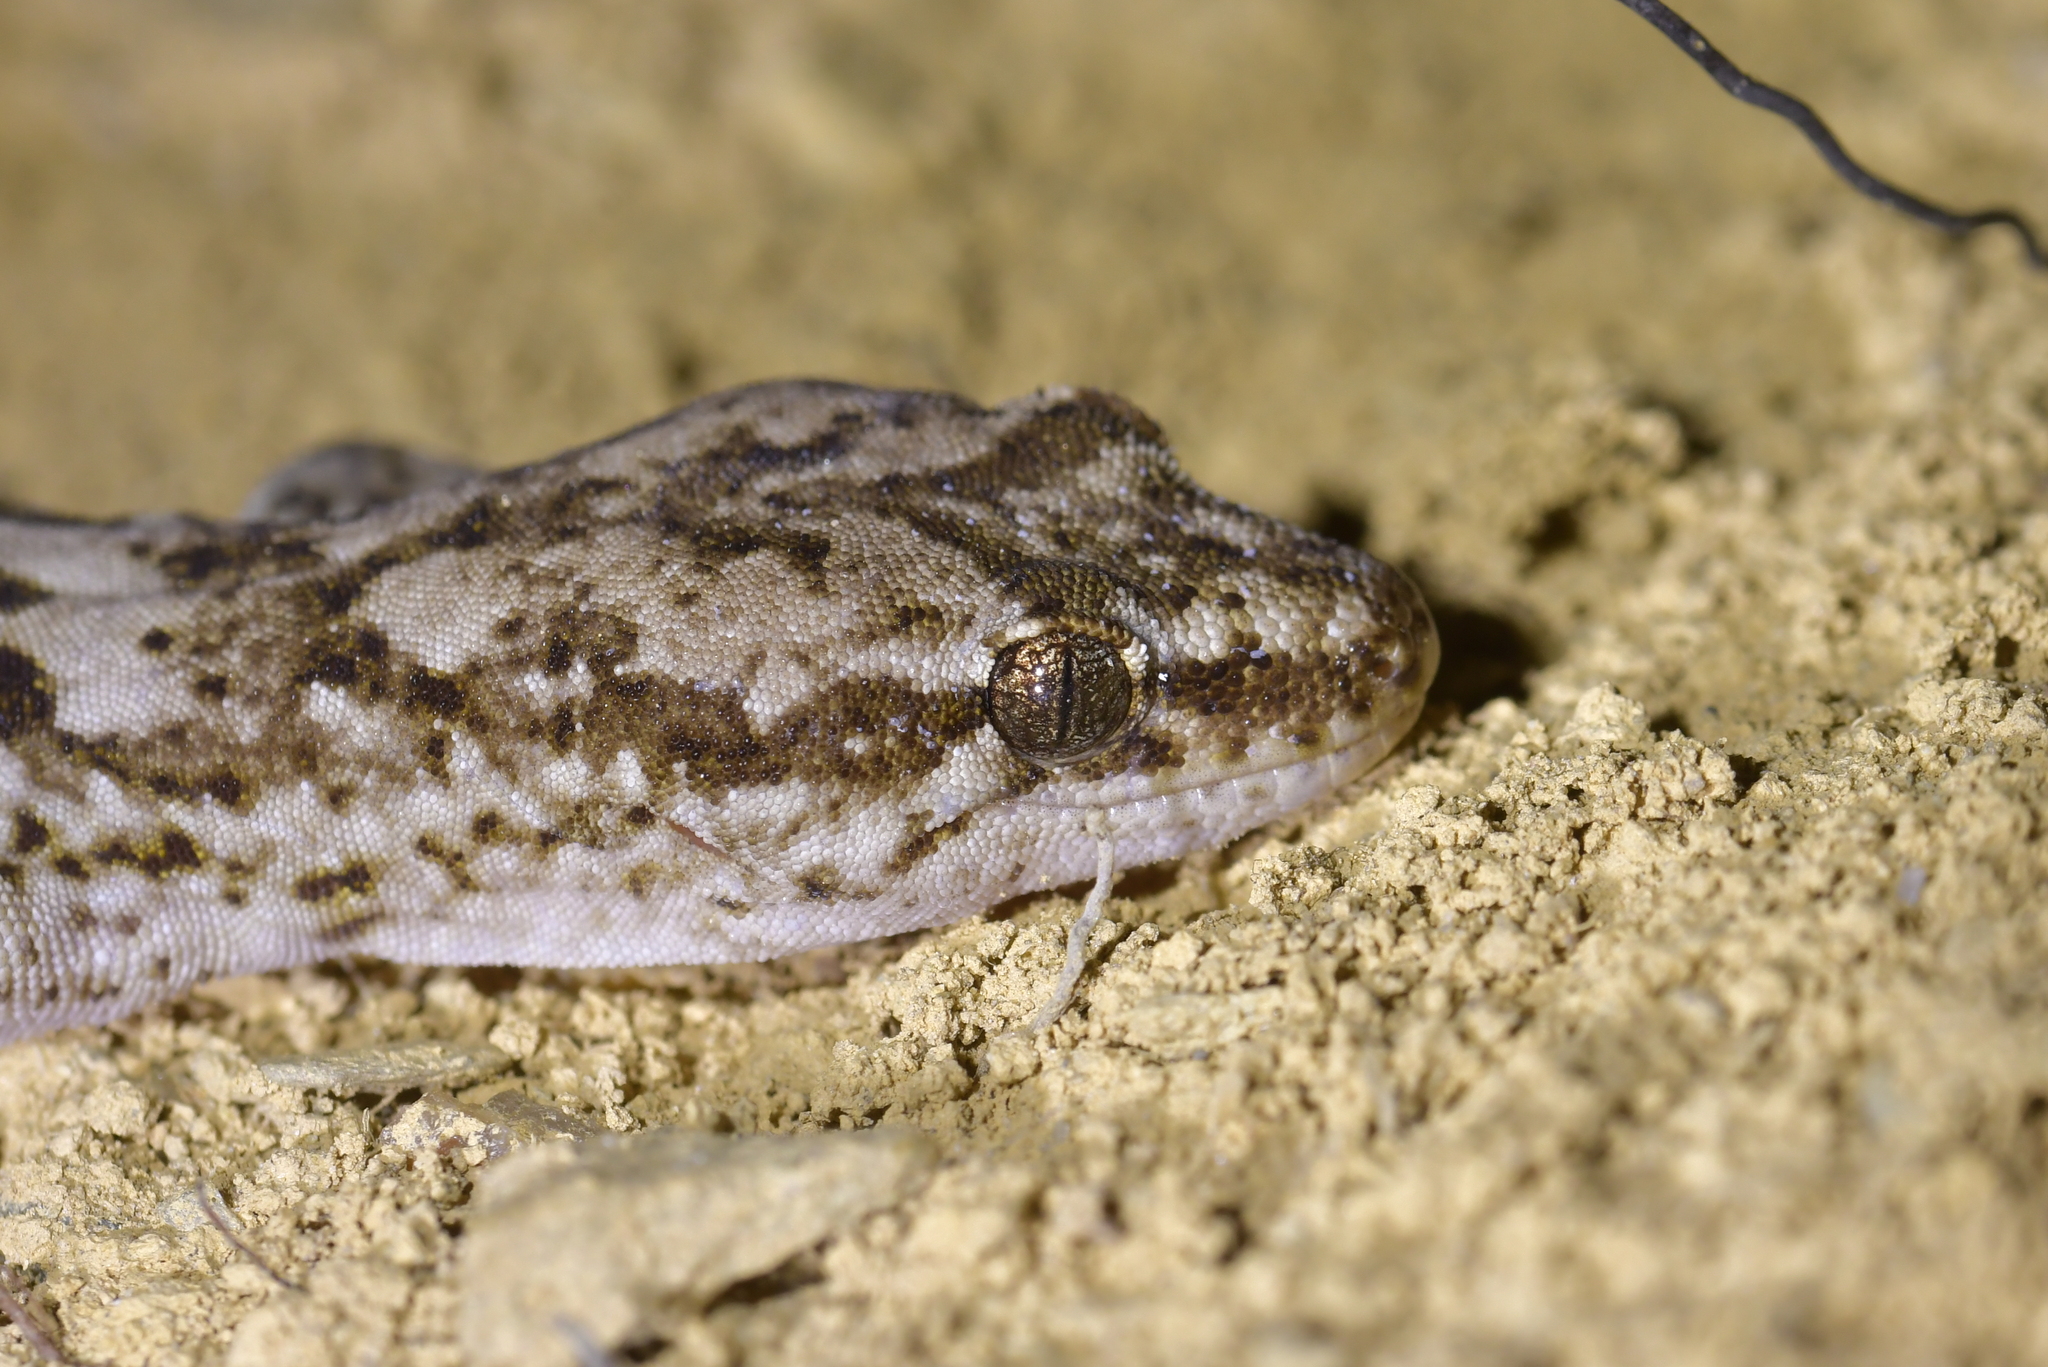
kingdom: Animalia
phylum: Chordata
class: Squamata
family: Diplodactylidae
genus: Woodworthia
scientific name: Woodworthia
